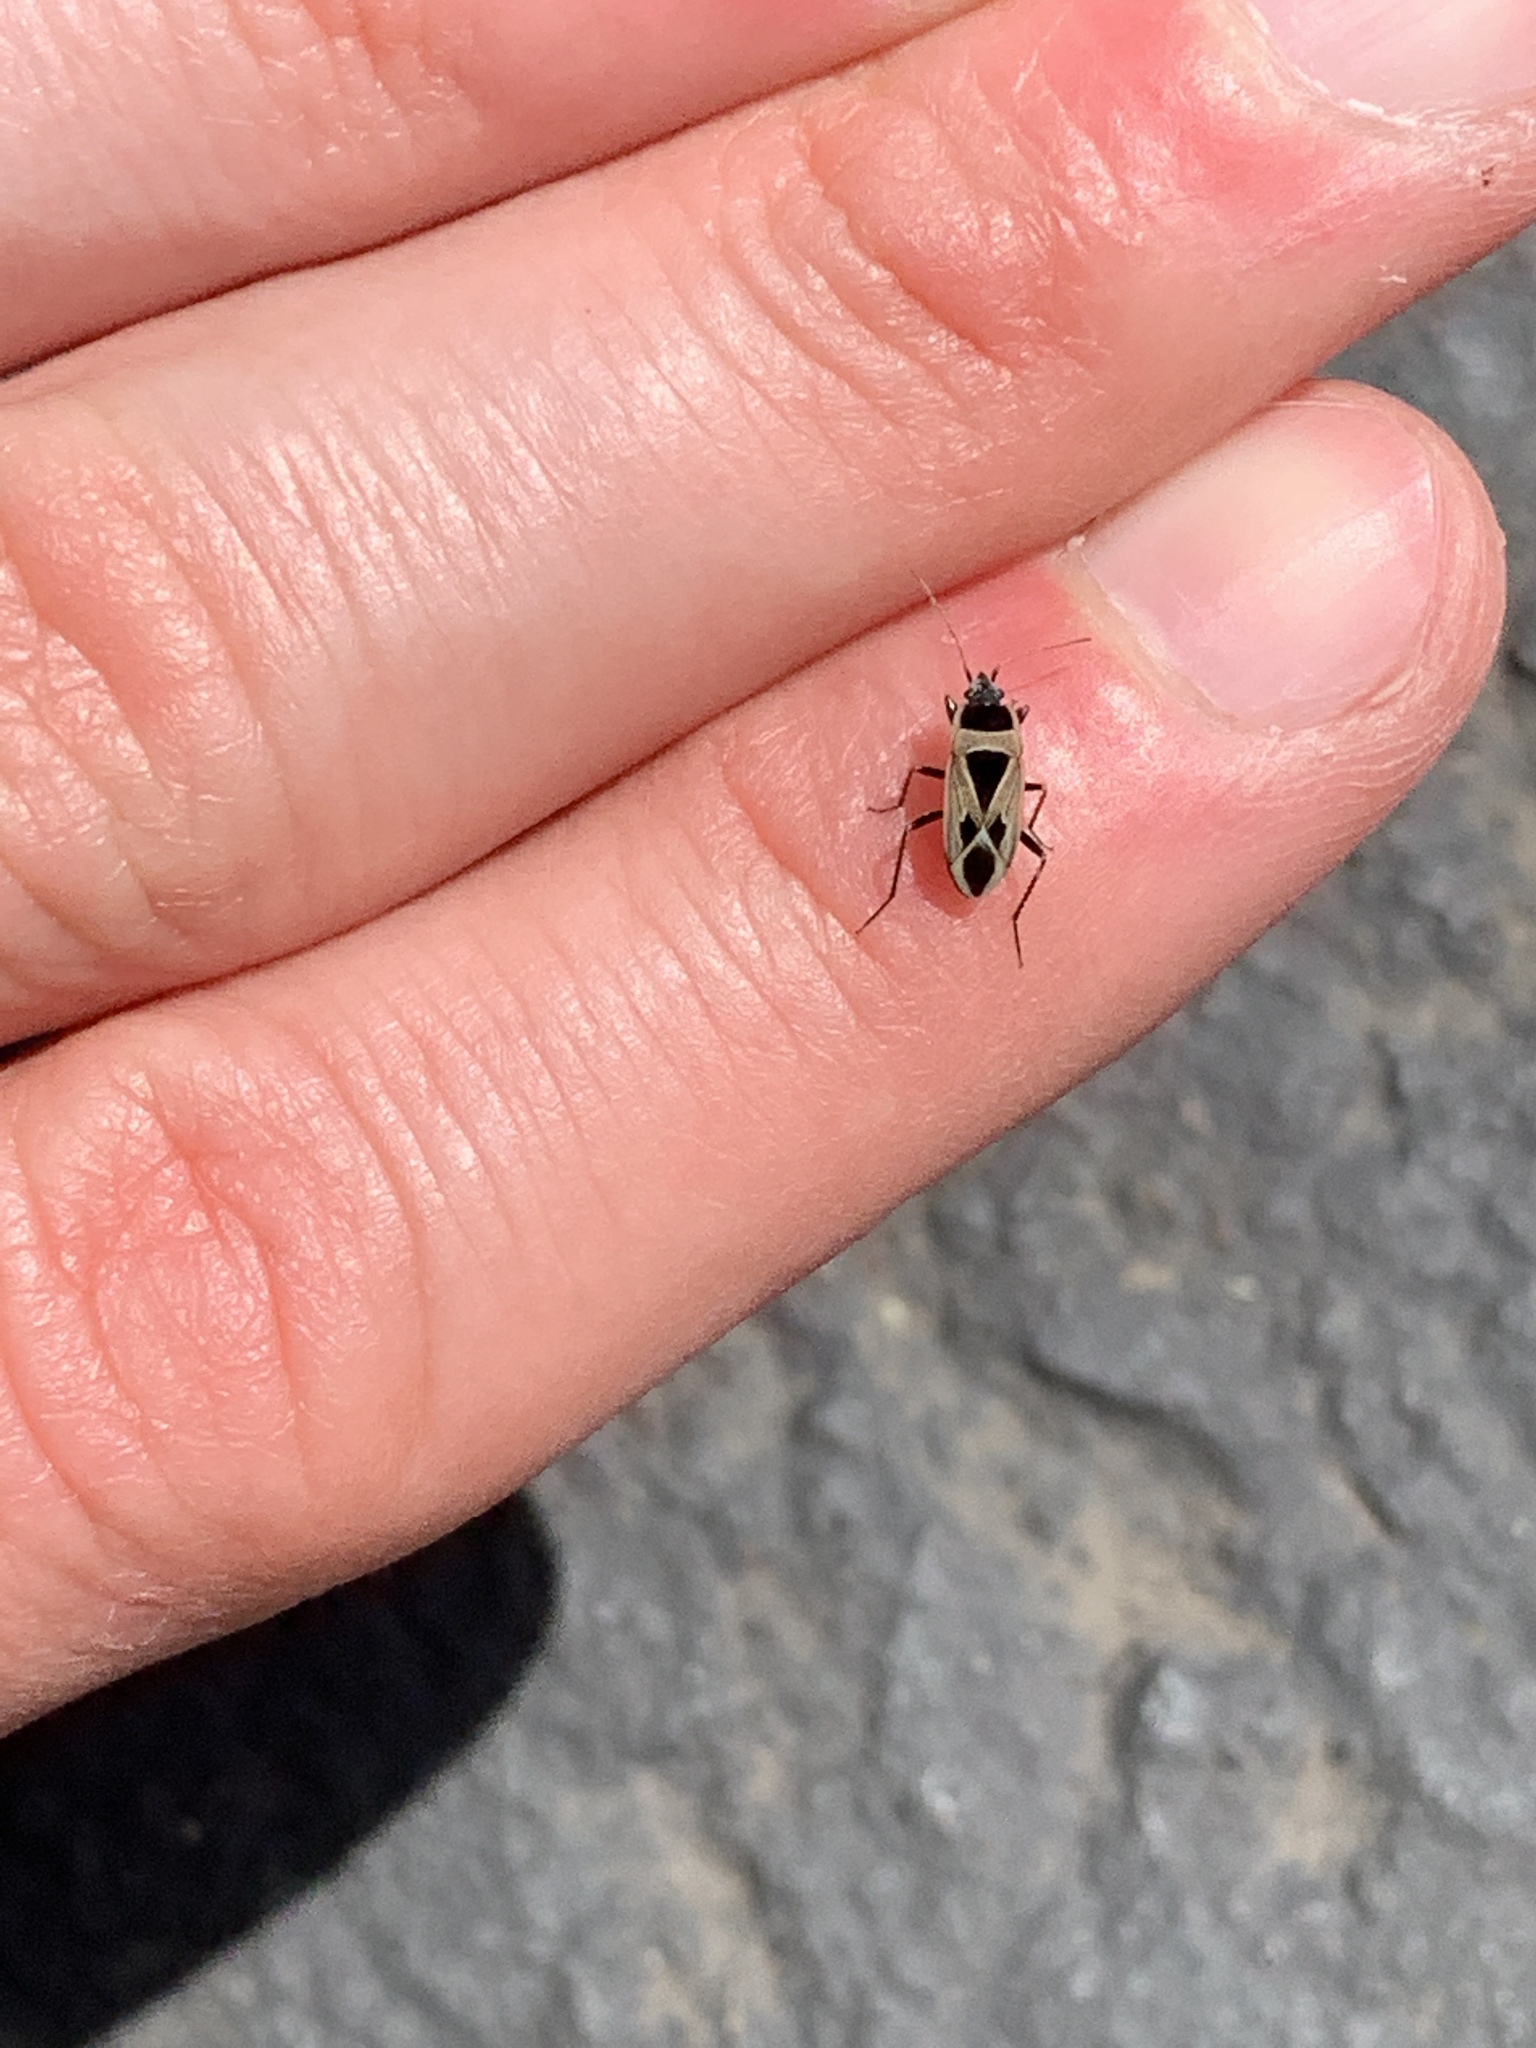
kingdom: Animalia
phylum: Arthropoda
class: Insecta
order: Hemiptera
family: Rhyparochromidae
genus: Xanthochilus
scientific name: Xanthochilus saturnius
